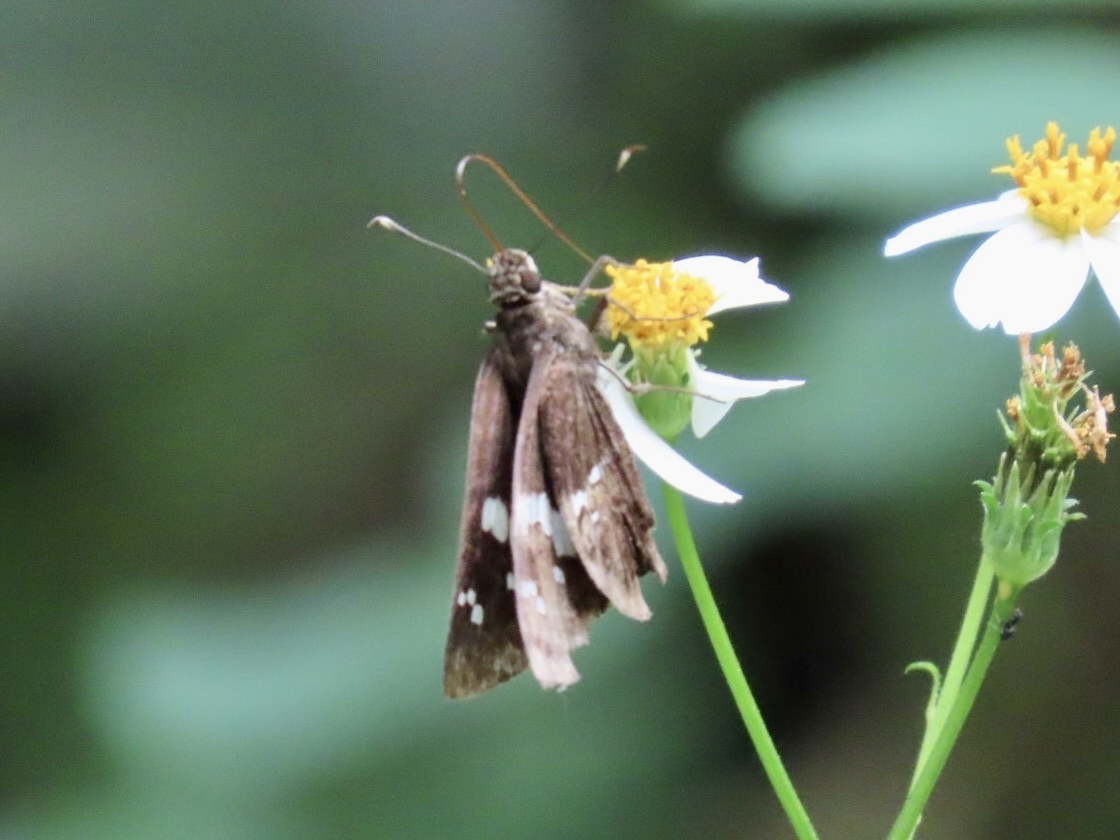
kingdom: Animalia
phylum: Arthropoda
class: Insecta
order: Lepidoptera
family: Hesperiidae
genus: Hyarotis
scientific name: Hyarotis adrastus
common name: Tree flitter
